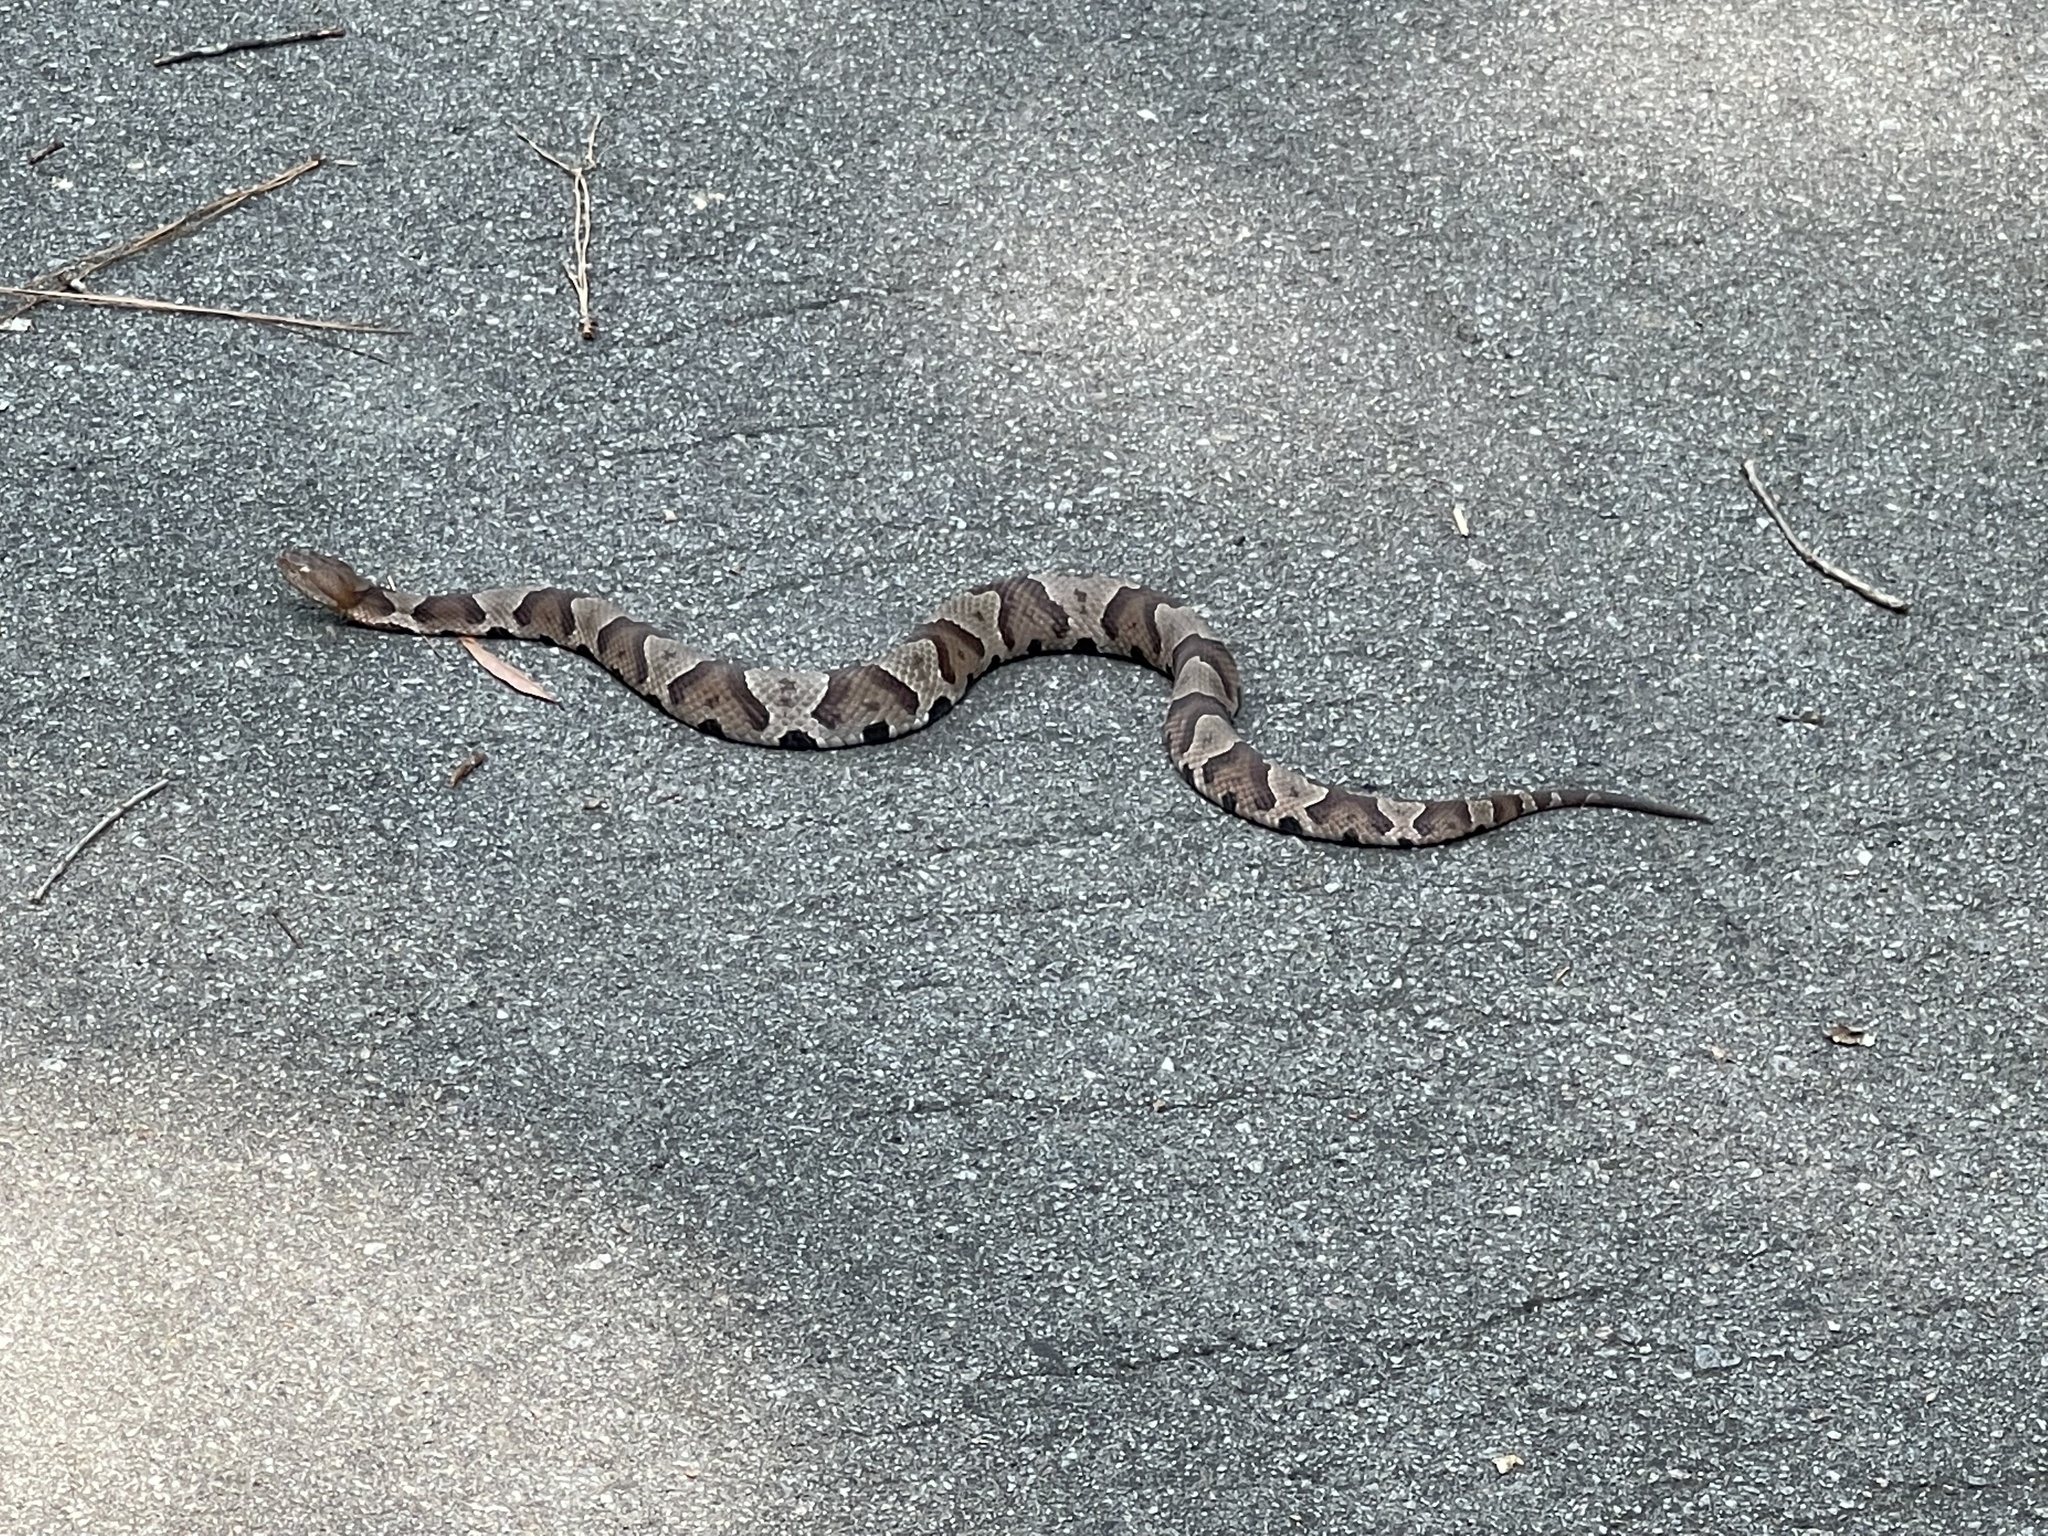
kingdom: Animalia
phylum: Chordata
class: Squamata
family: Viperidae
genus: Agkistrodon
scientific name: Agkistrodon contortrix
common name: Northern copperhead
